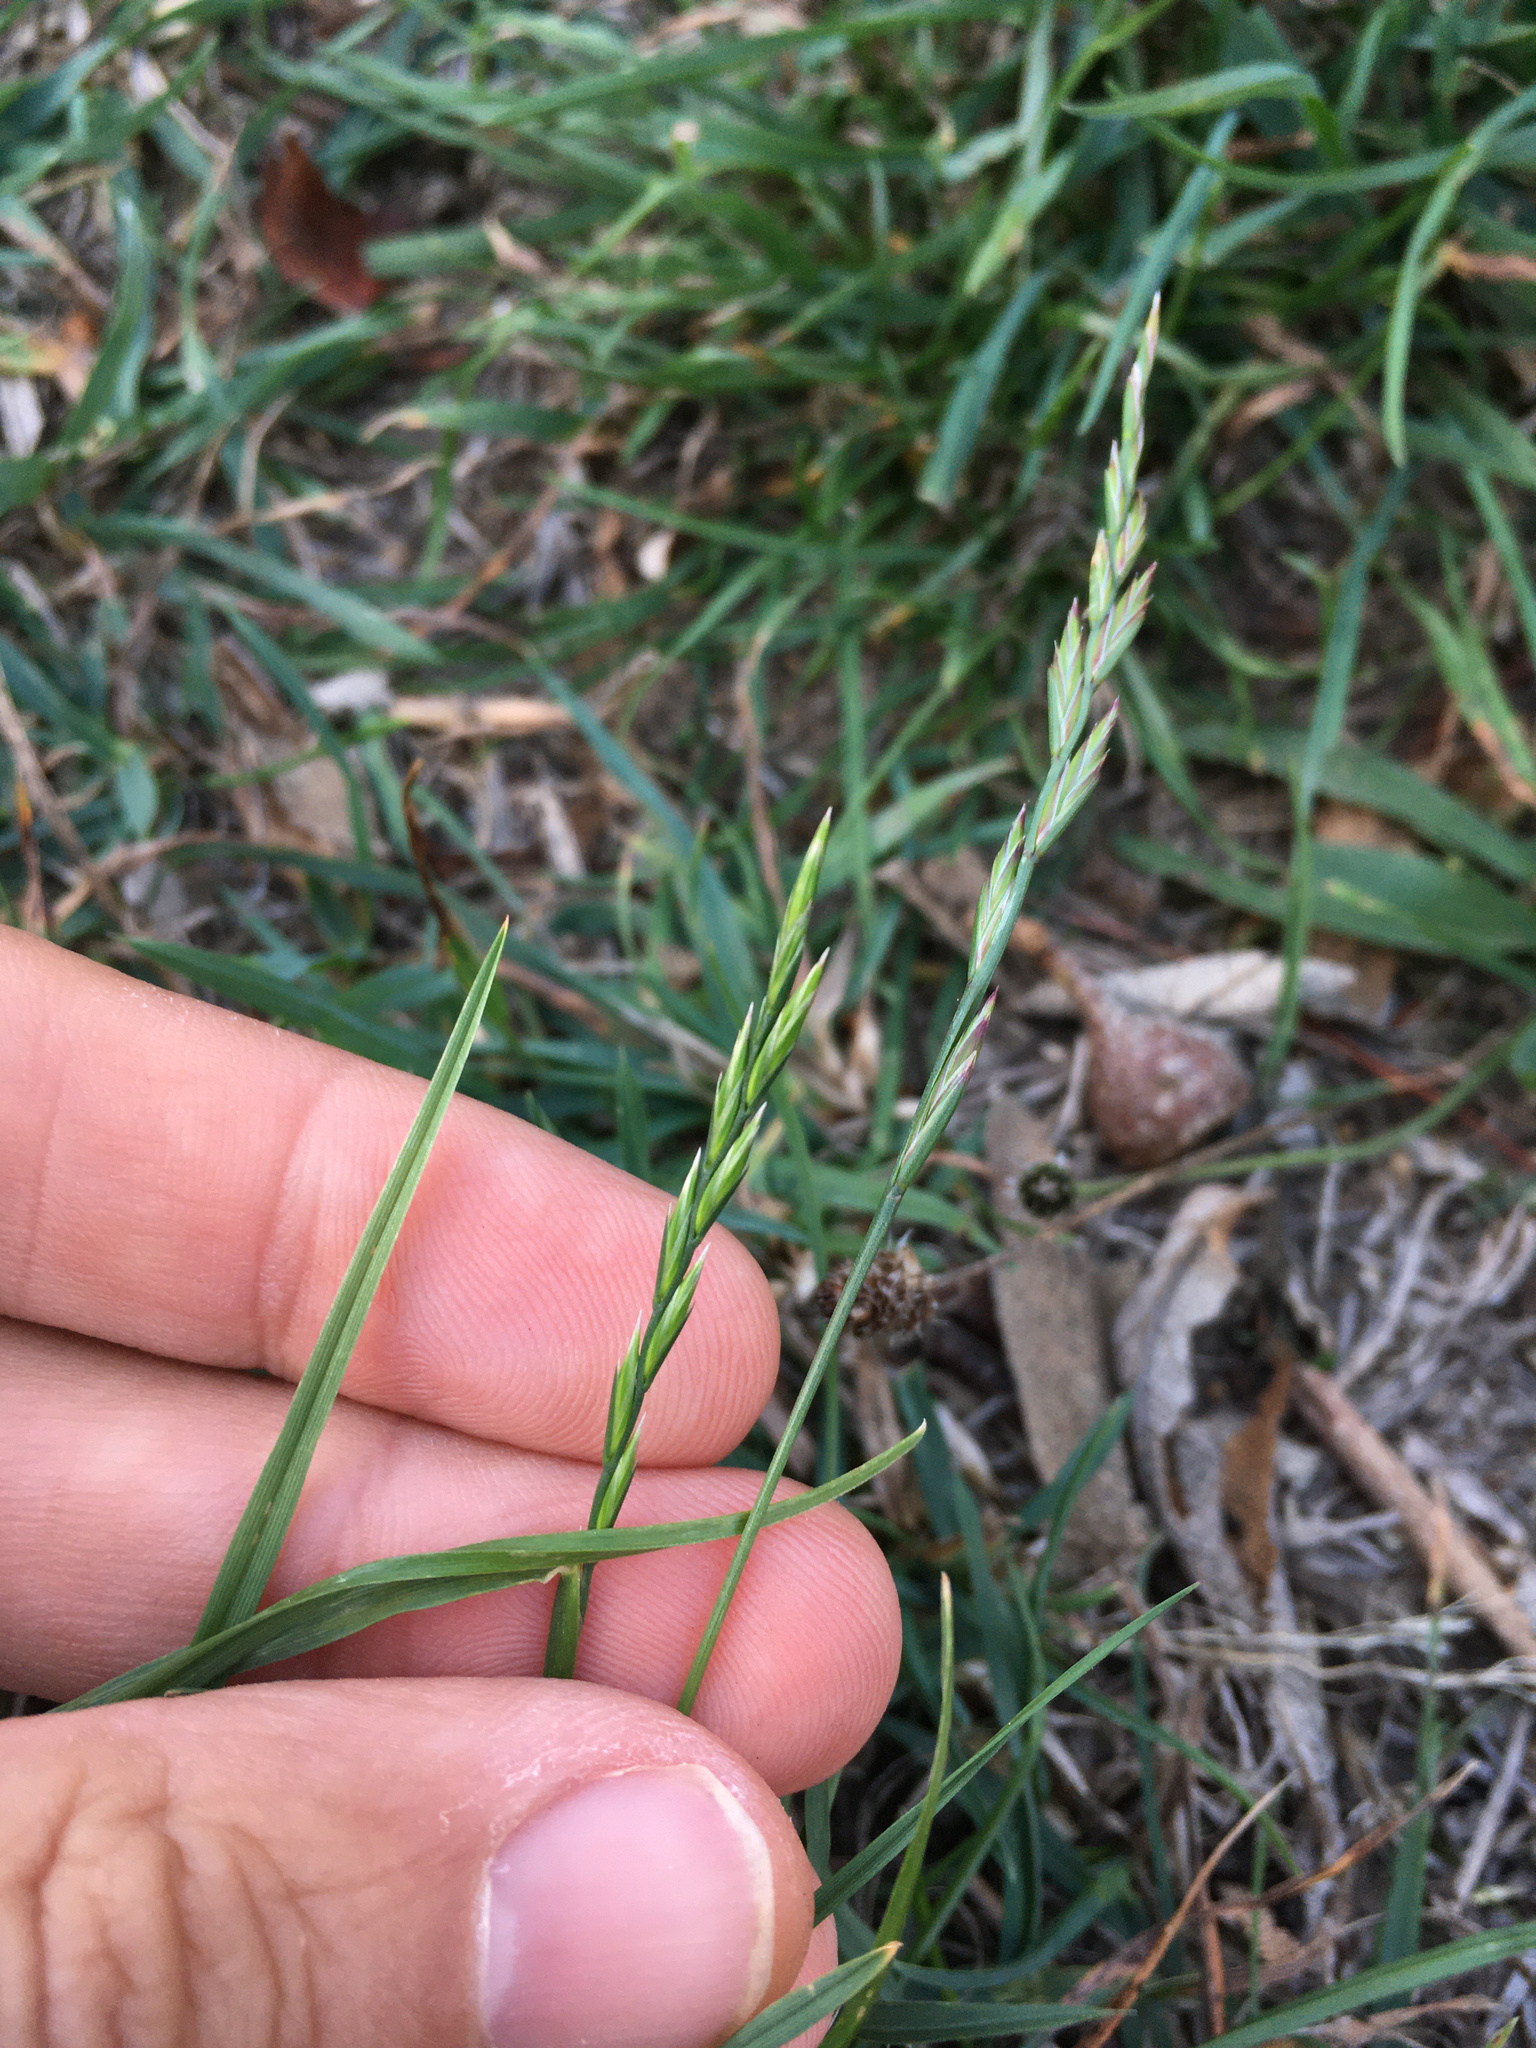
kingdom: Plantae
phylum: Tracheophyta
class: Liliopsida
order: Poales
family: Poaceae
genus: Lolium
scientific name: Lolium perenne
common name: Perennial ryegrass
